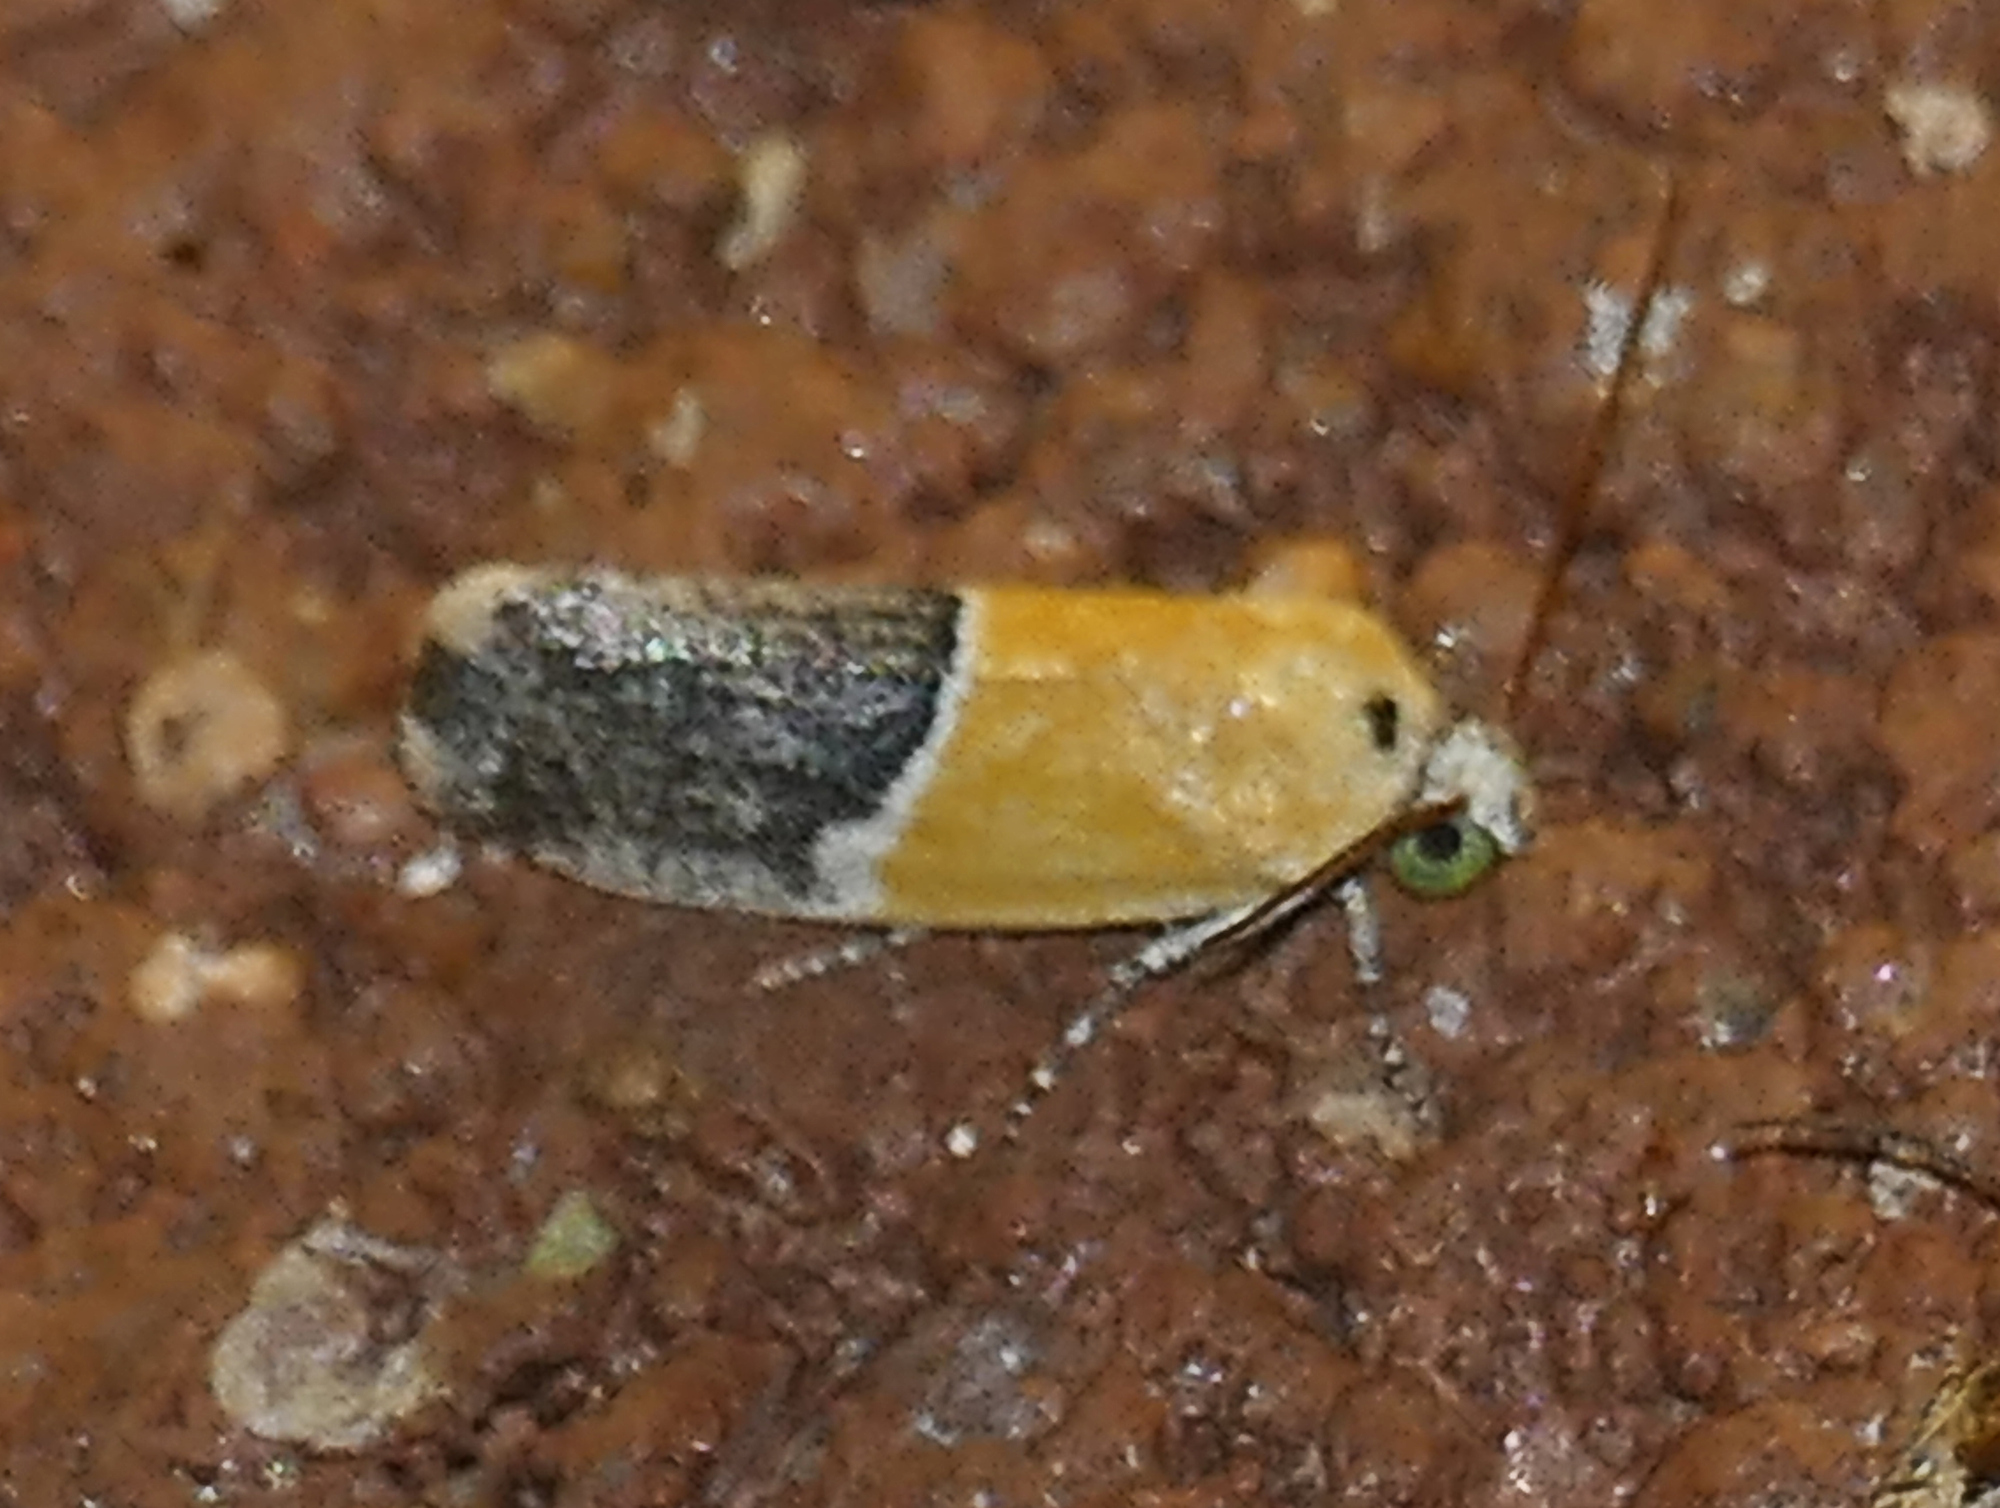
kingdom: Animalia
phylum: Arthropoda
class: Insecta
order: Lepidoptera
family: Noctuidae
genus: Acontia
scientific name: Acontia clausula
